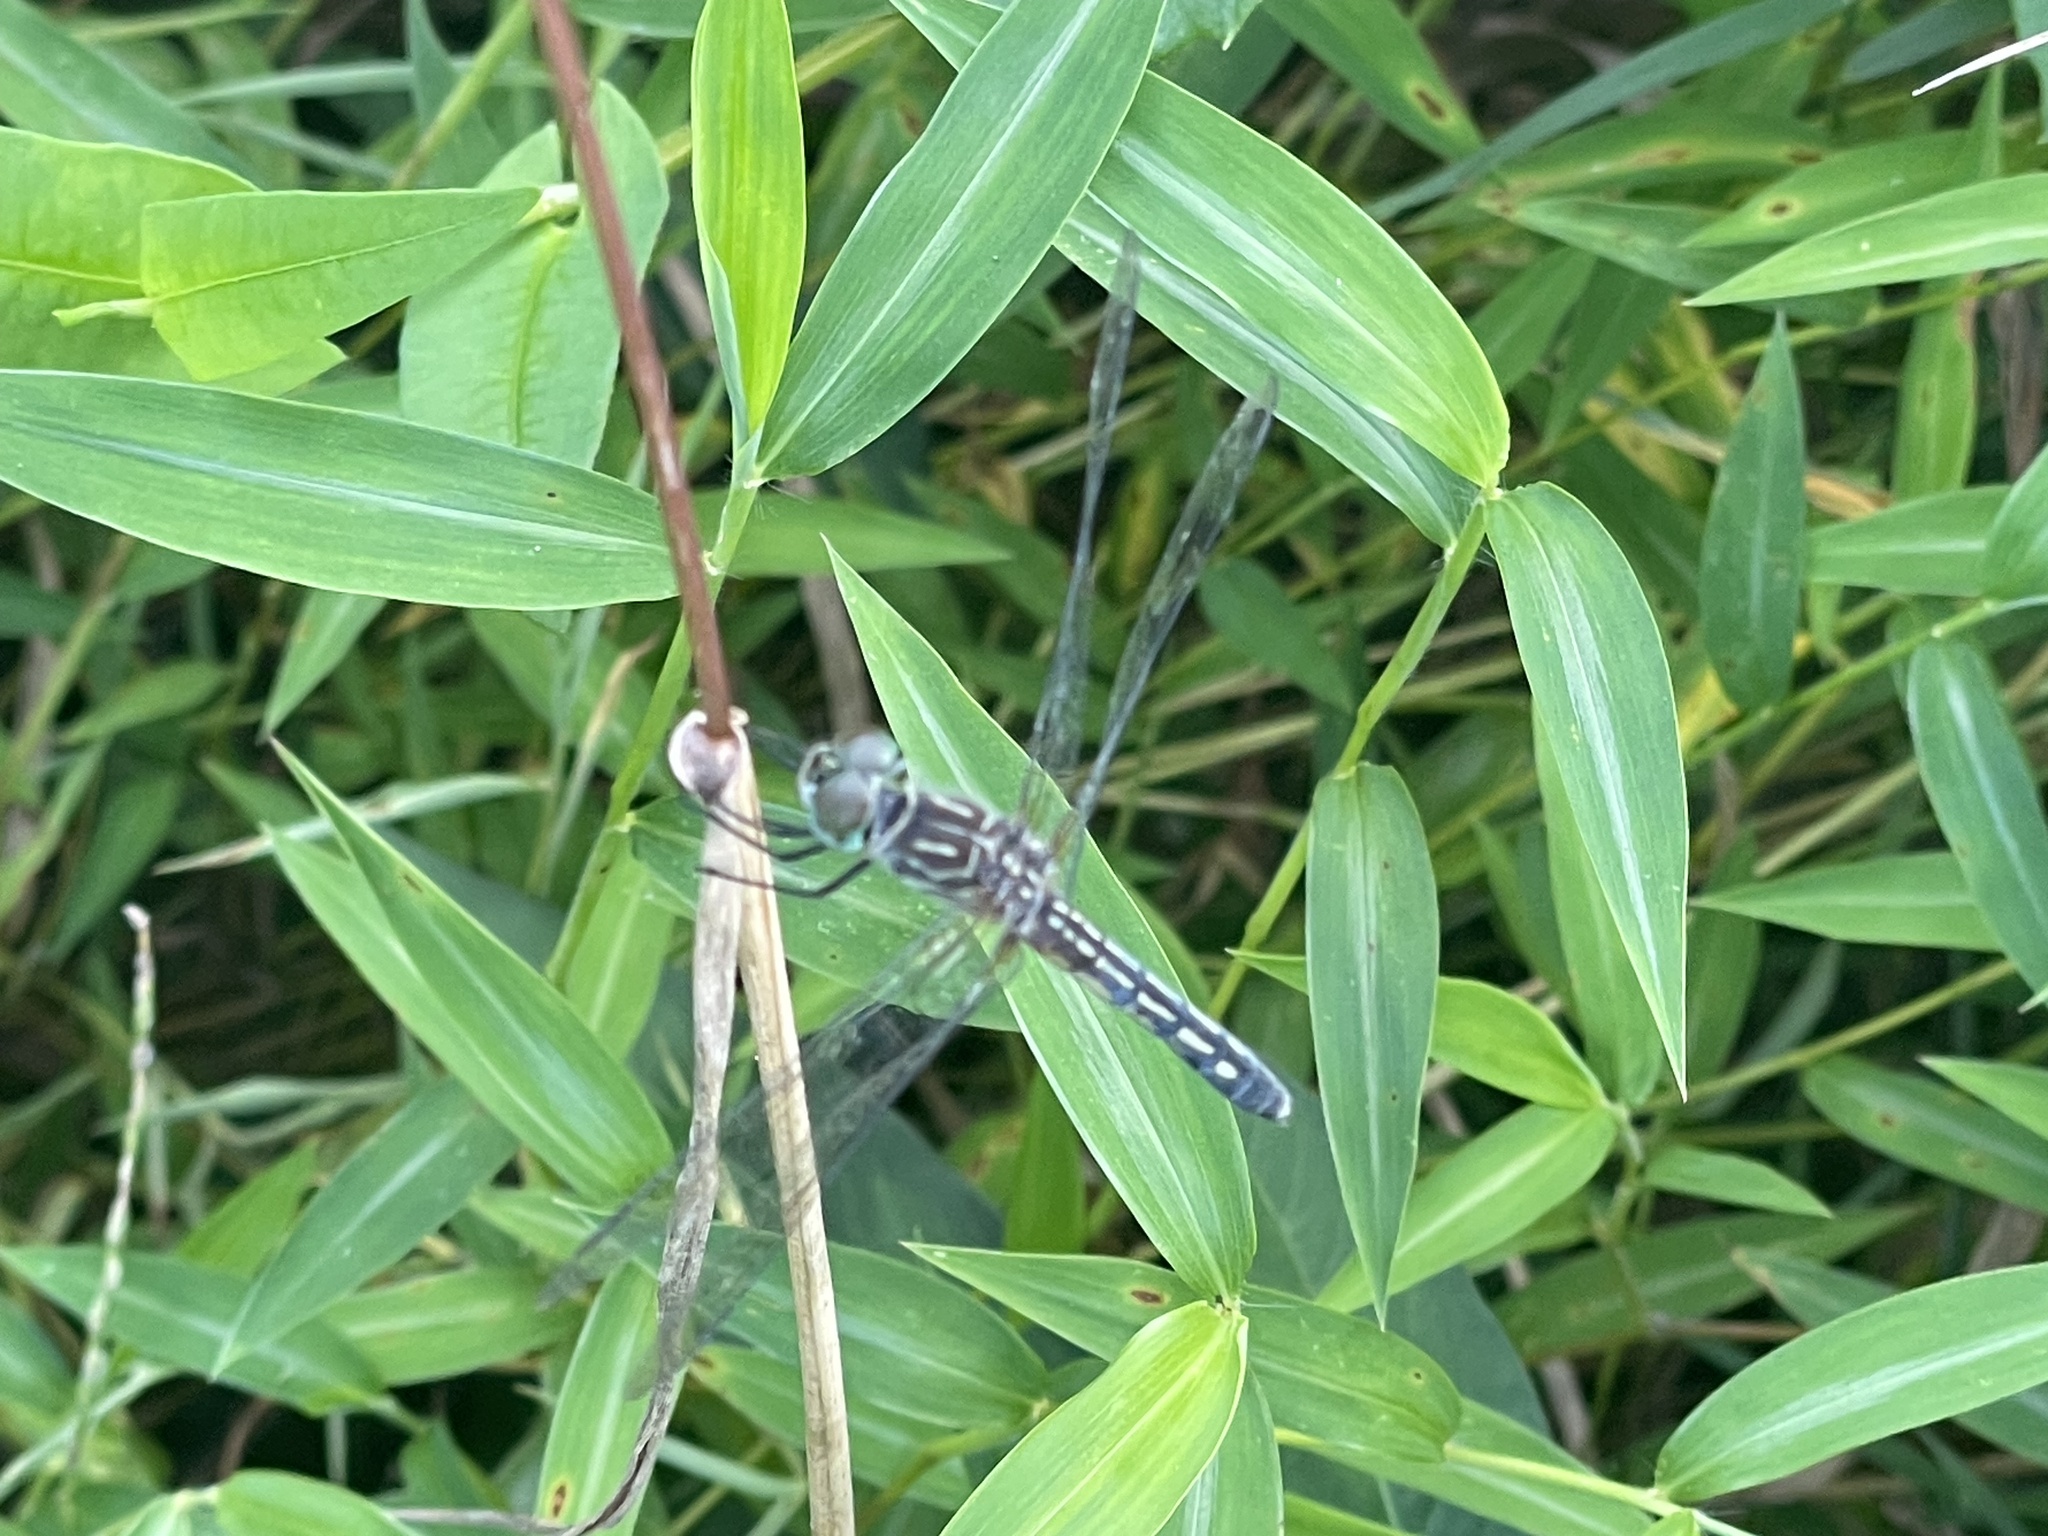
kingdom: Animalia
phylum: Arthropoda
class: Insecta
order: Odonata
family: Libellulidae
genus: Pachydiplax
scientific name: Pachydiplax longipennis
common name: Blue dasher
